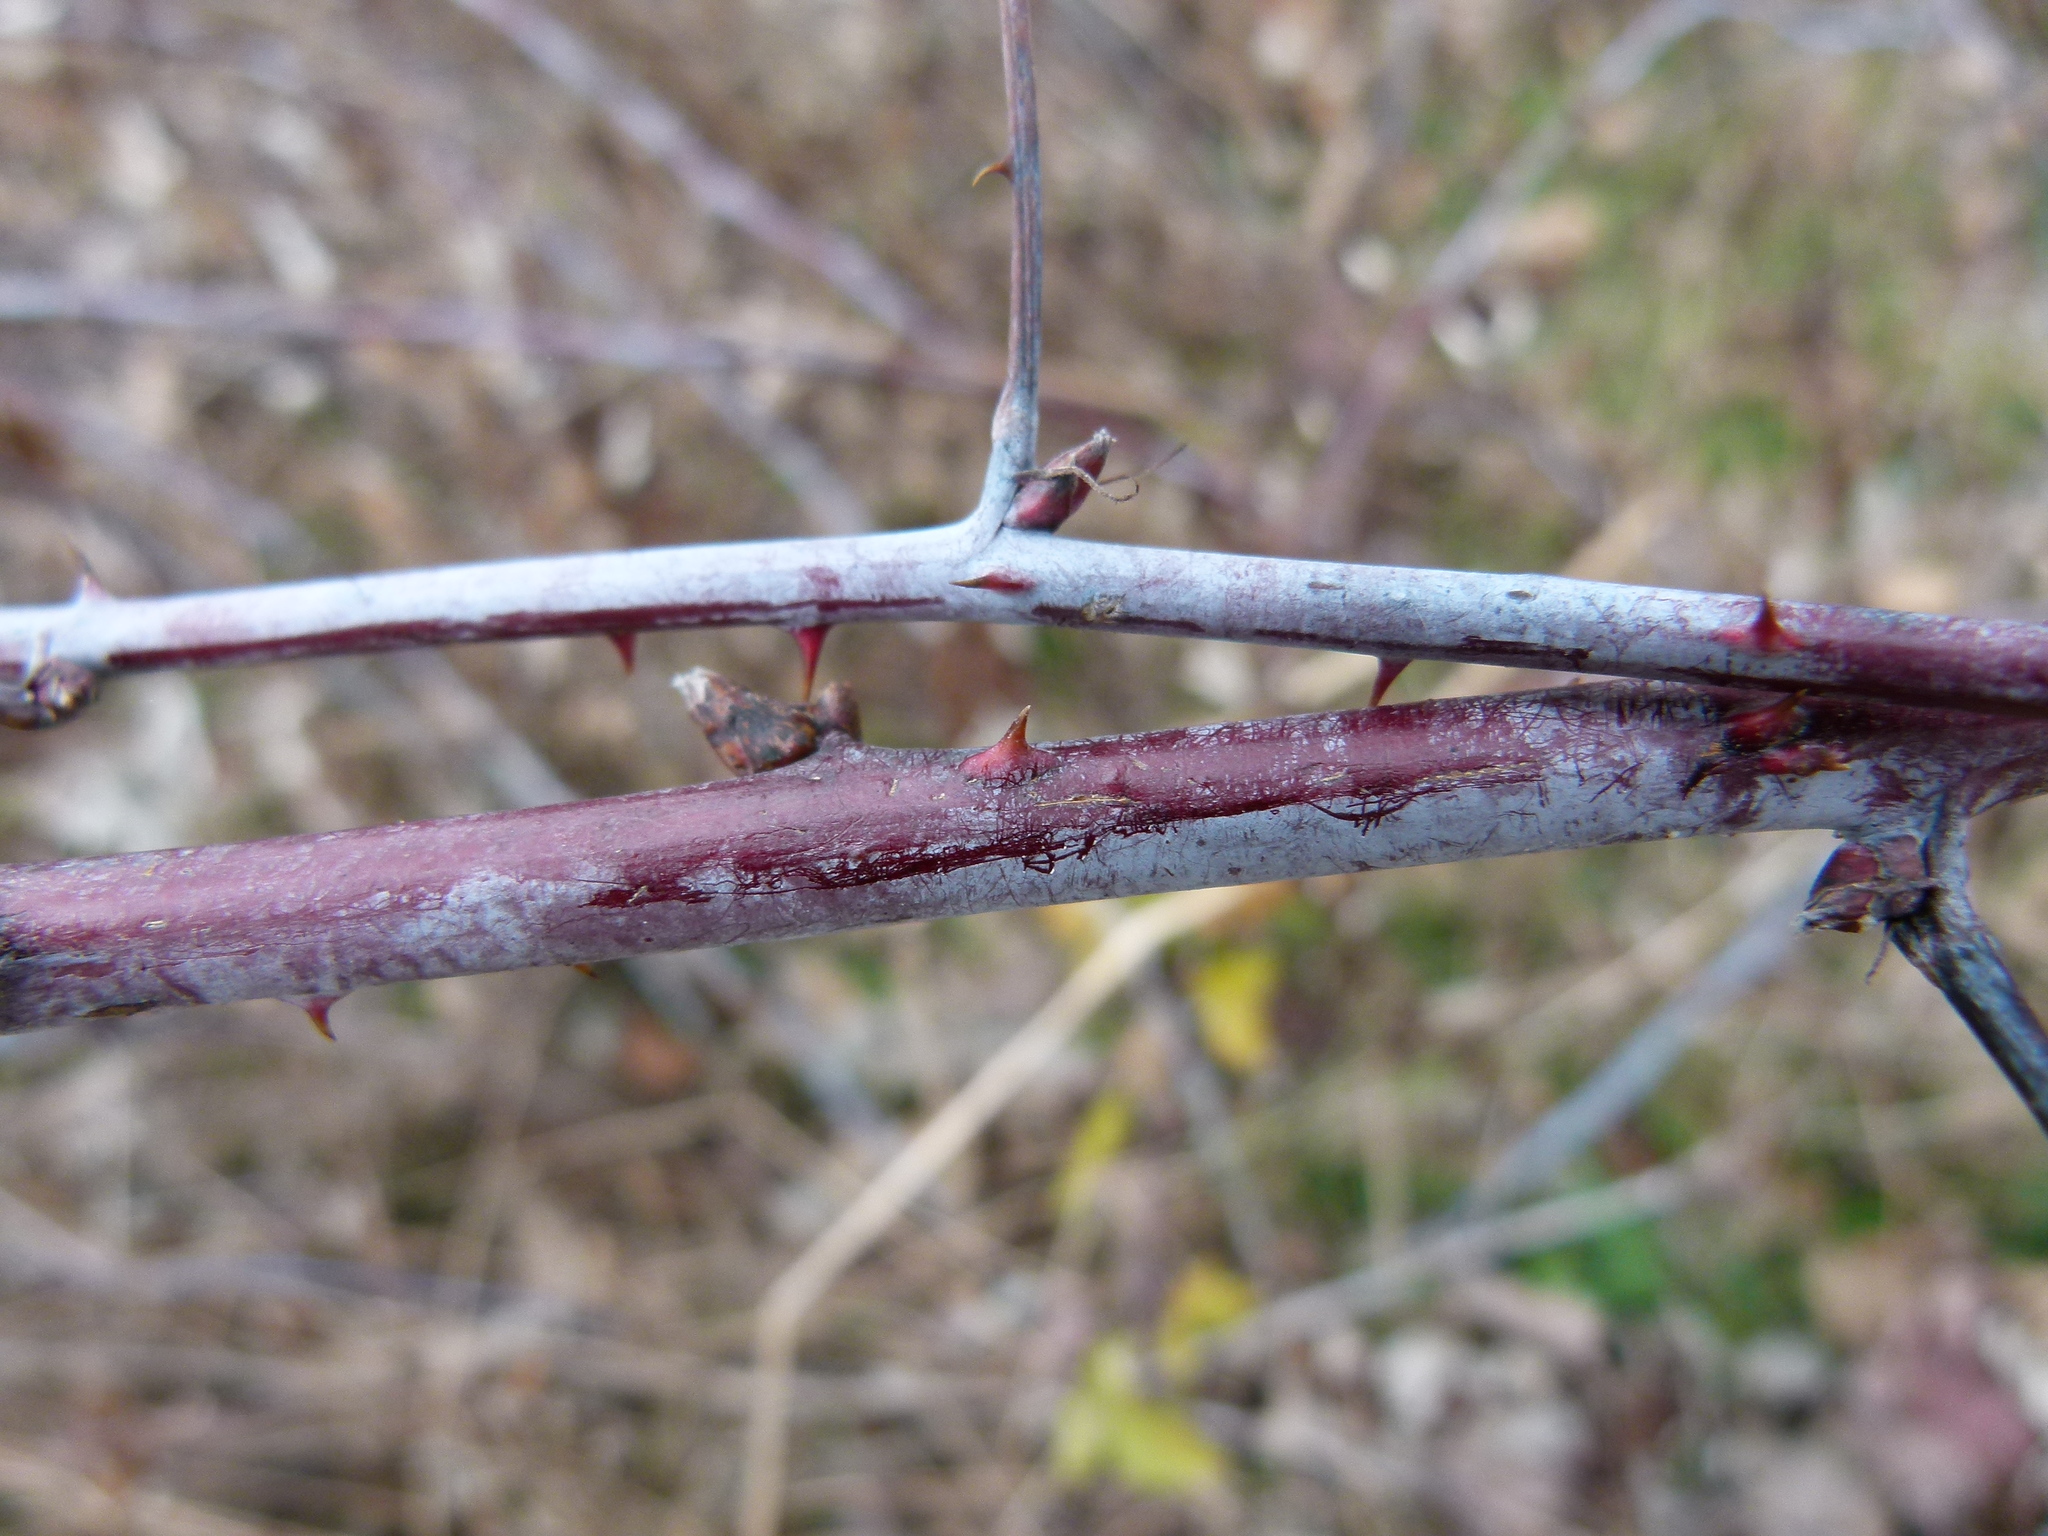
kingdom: Plantae
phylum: Tracheophyta
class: Magnoliopsida
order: Rosales
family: Rosaceae
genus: Rubus
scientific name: Rubus occidentalis
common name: Black raspberry
